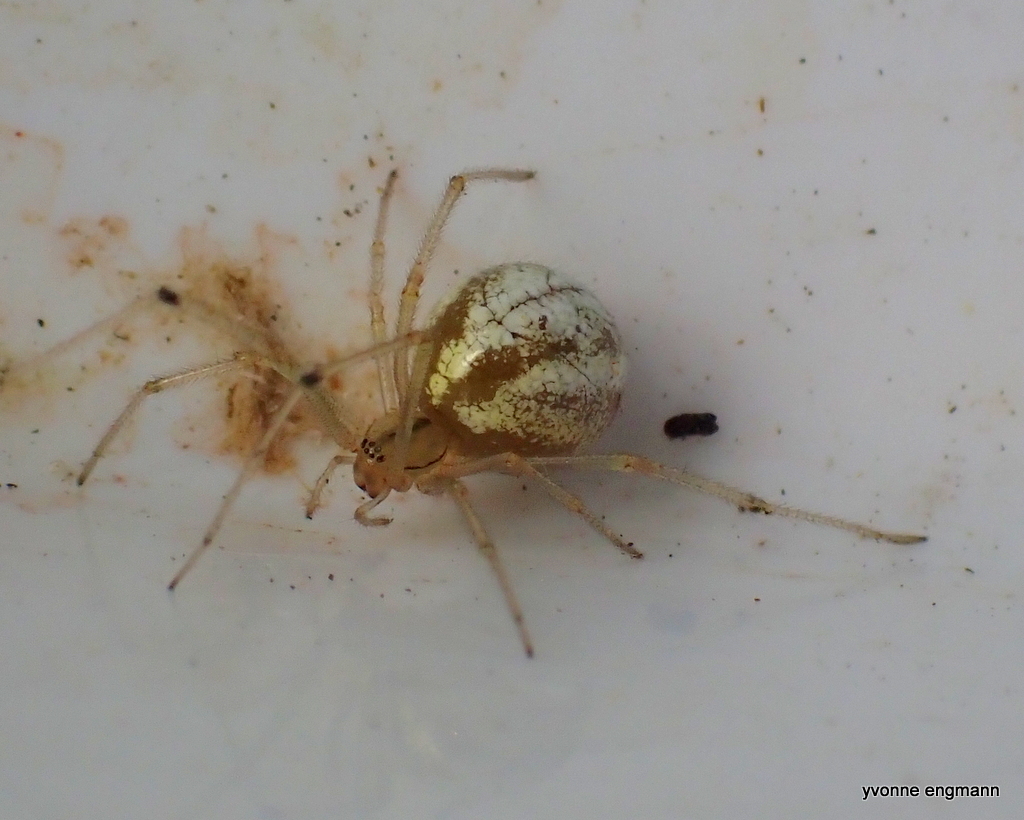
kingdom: Animalia
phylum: Arthropoda
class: Arachnida
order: Araneae
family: Theridiidae
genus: Enoplognatha
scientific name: Enoplognatha ovata
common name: Common candy-striped spider
